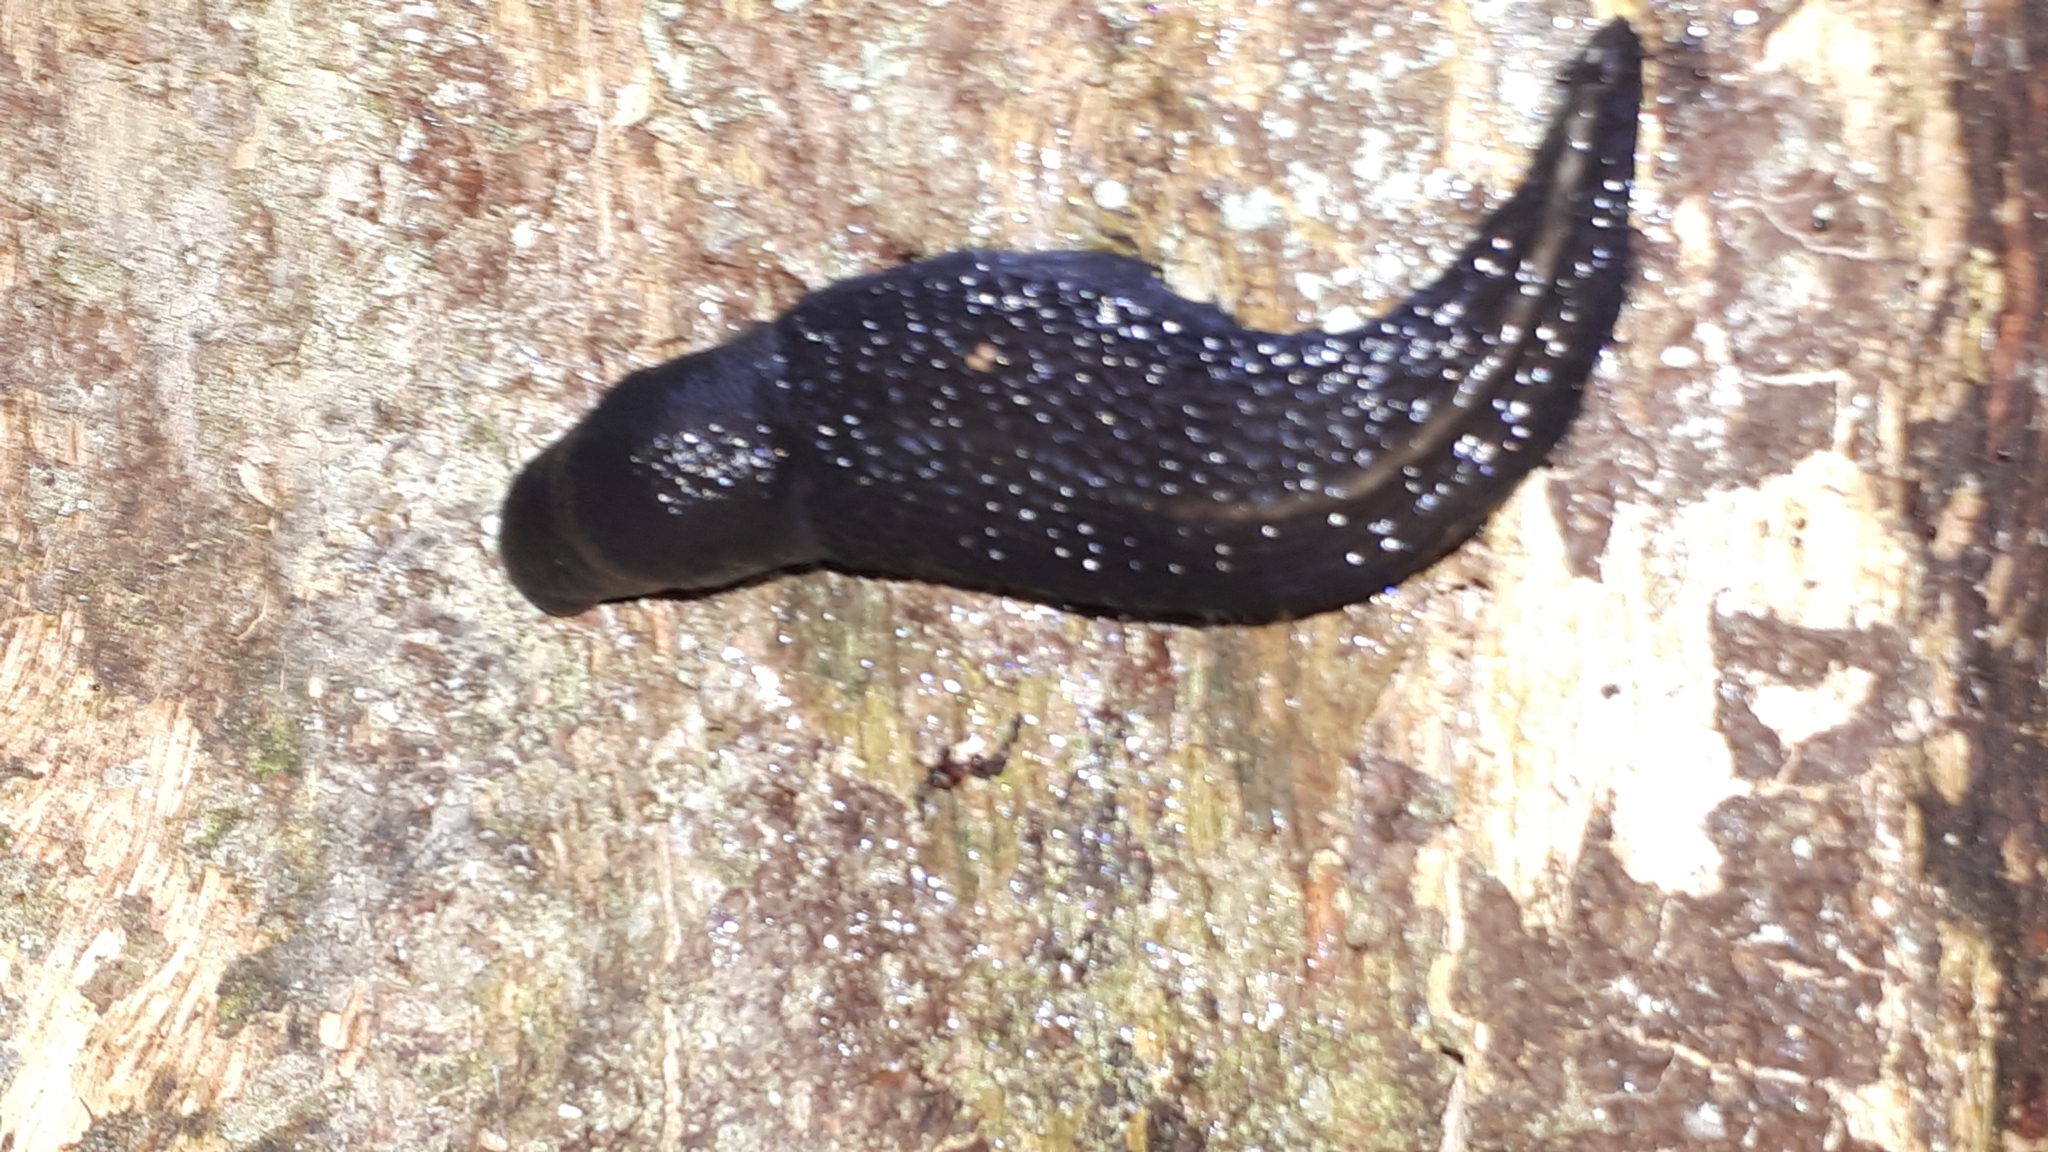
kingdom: Animalia
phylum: Mollusca
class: Gastropoda
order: Stylommatophora
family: Limacidae
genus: Limax
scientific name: Limax cinereoniger
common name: Ash-black slug
